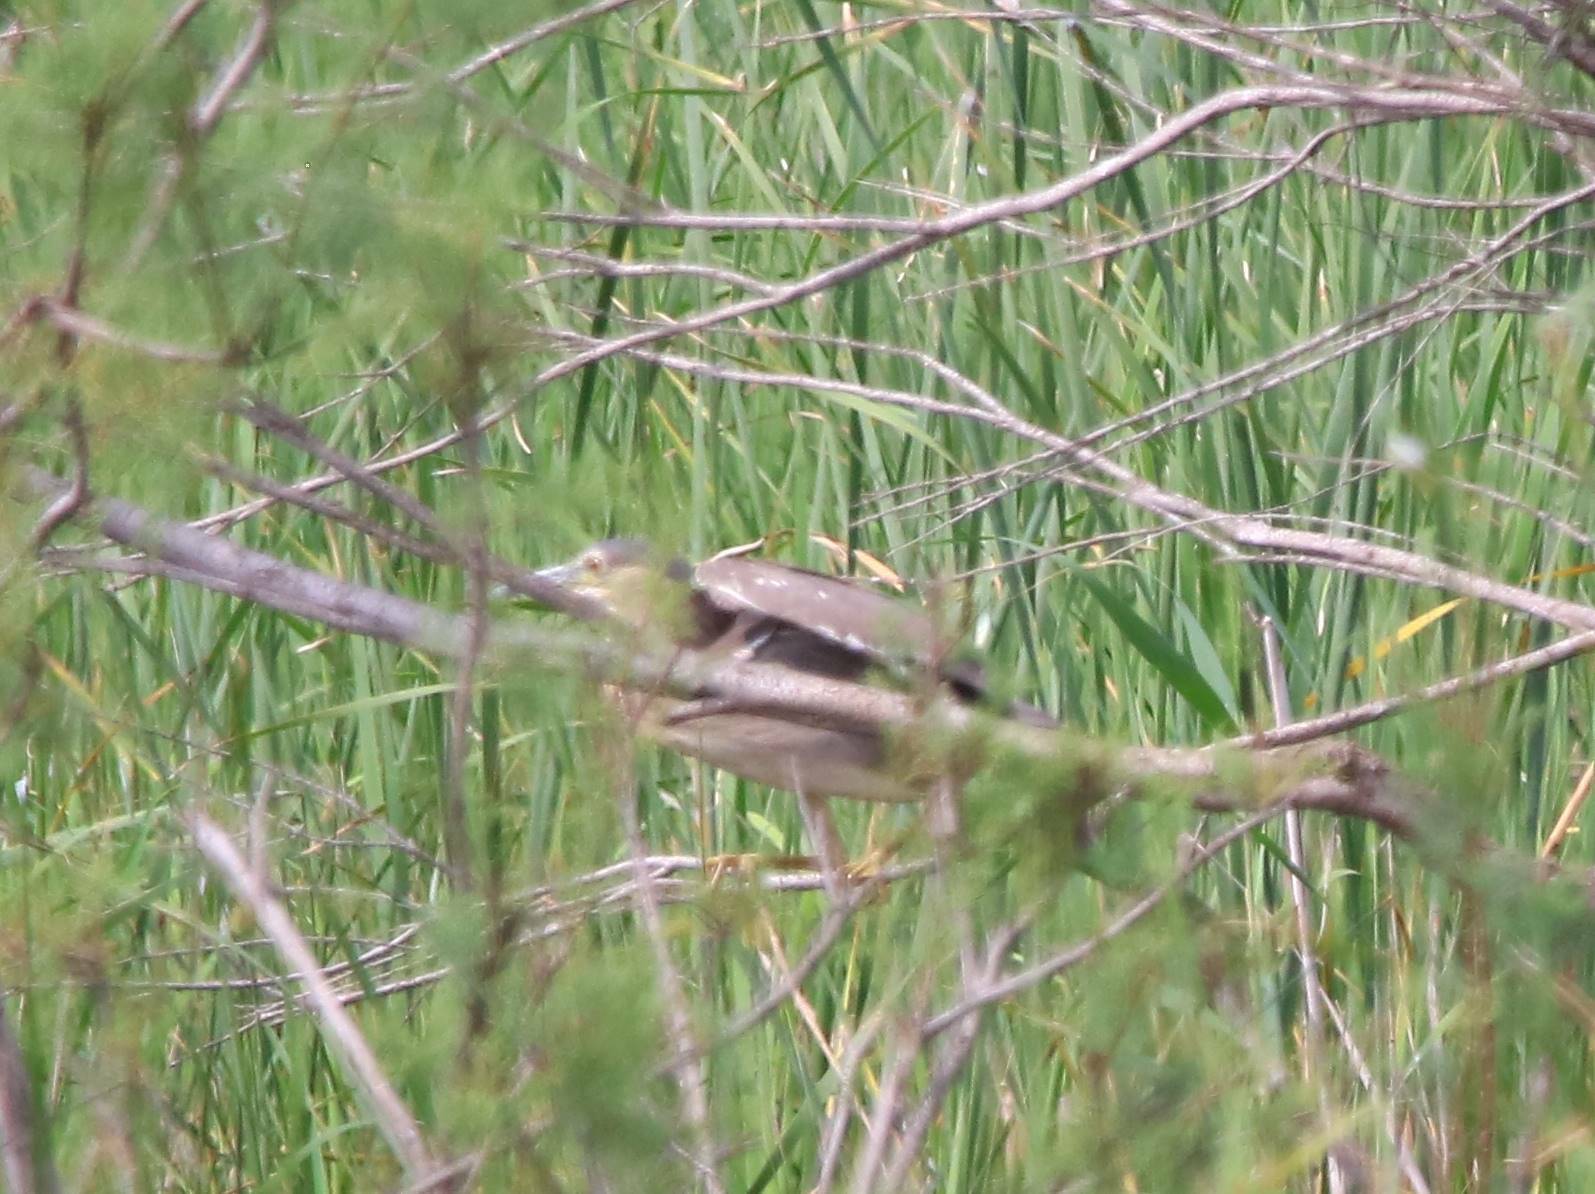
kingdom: Animalia
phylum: Chordata
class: Aves
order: Pelecaniformes
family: Ardeidae
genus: Nycticorax
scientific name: Nycticorax nycticorax
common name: Black-crowned night heron
